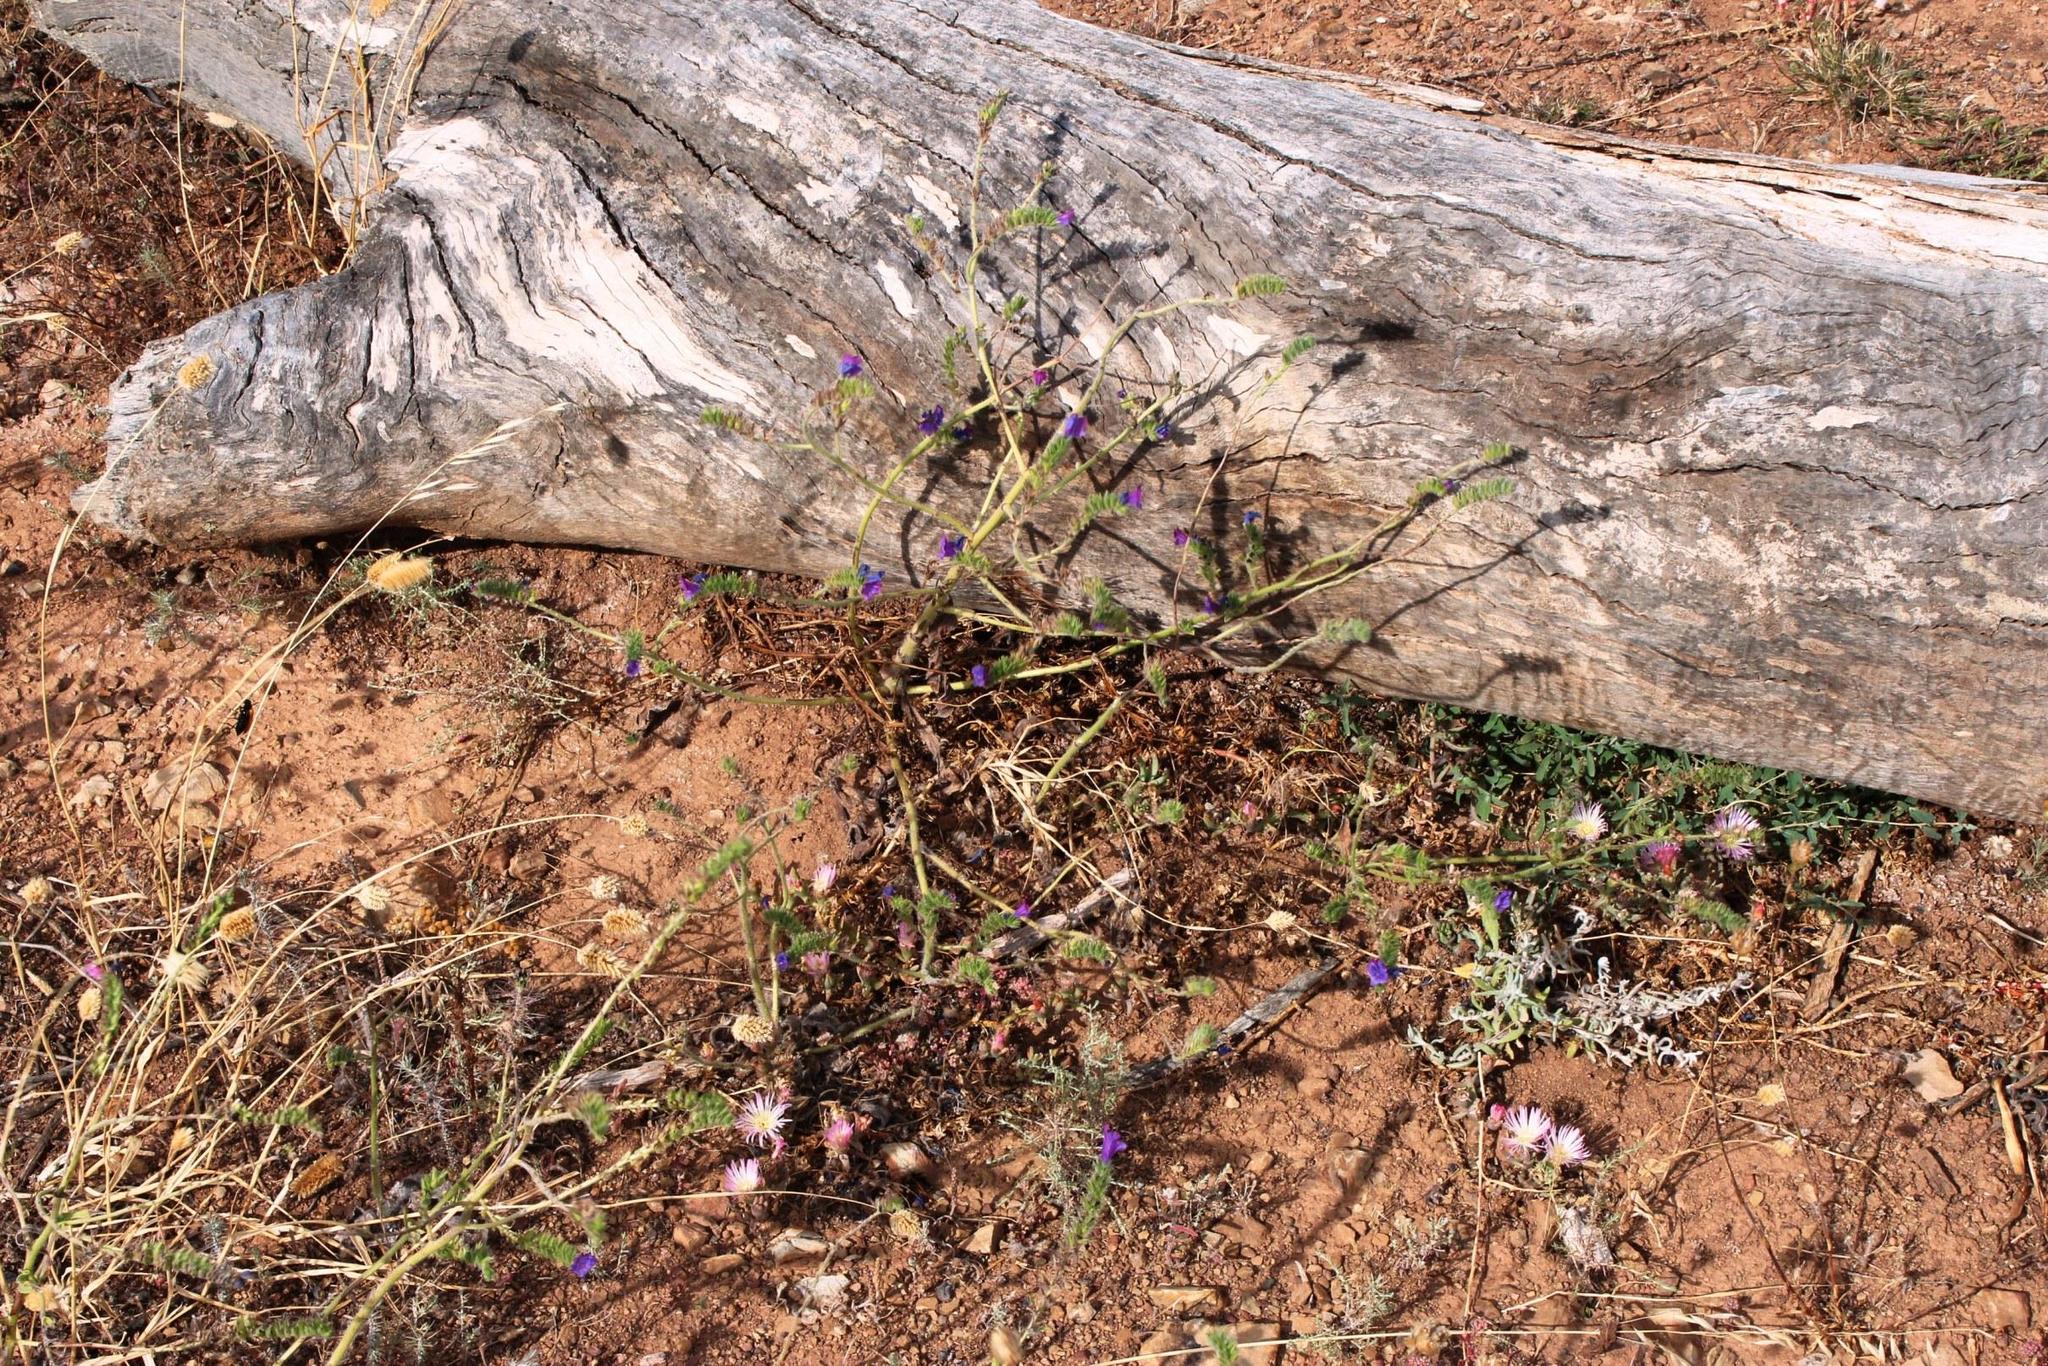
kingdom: Plantae
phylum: Tracheophyta
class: Magnoliopsida
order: Boraginales
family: Boraginaceae
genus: Echium
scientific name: Echium plantagineum
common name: Purple viper's-bugloss
